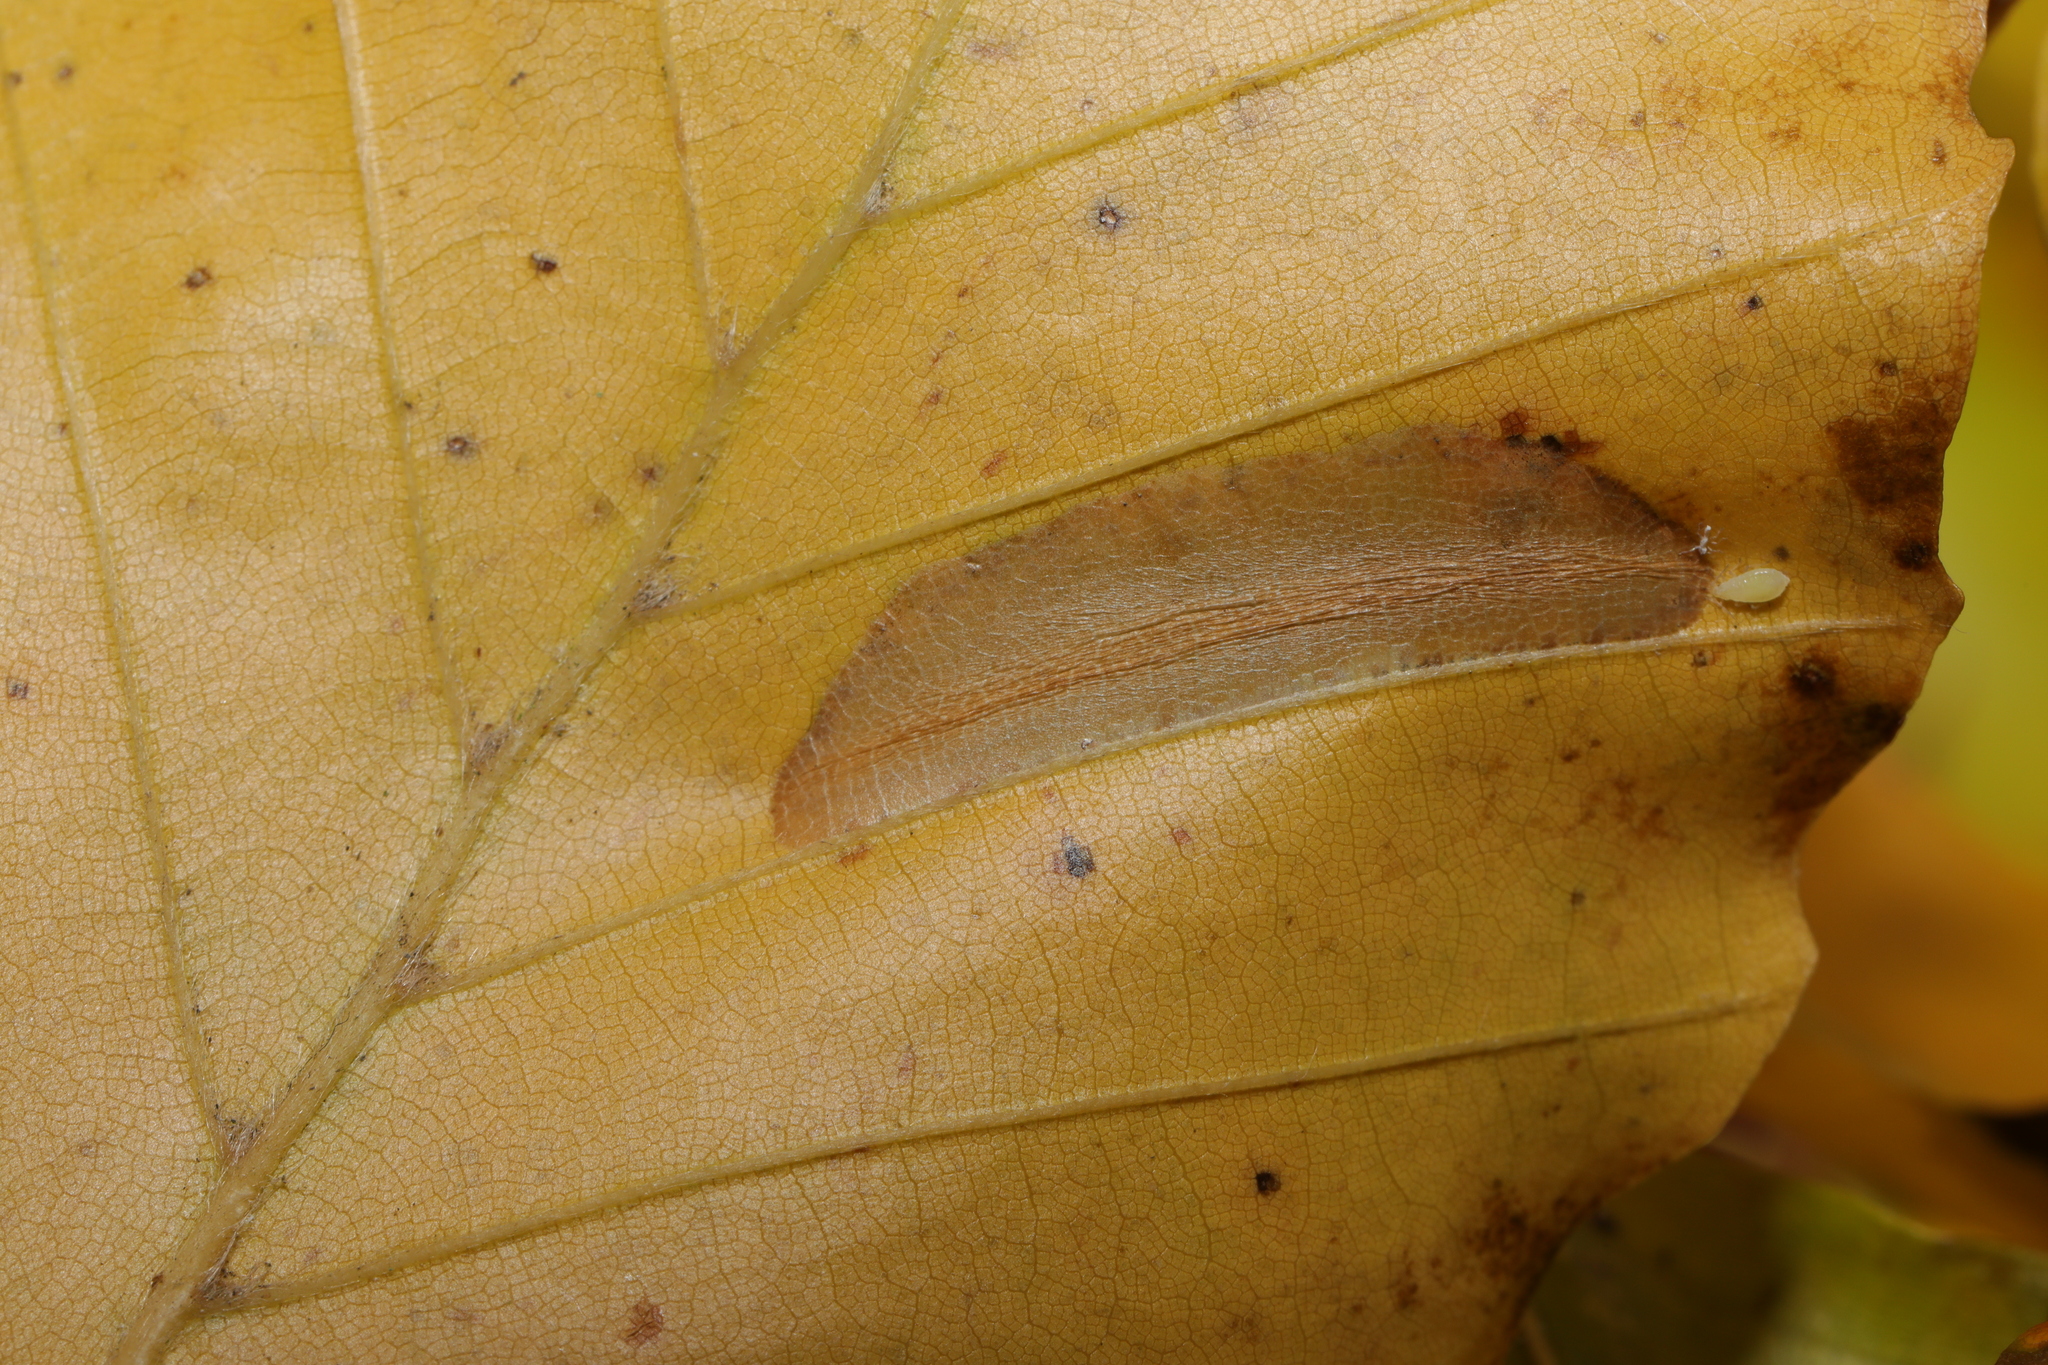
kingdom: Animalia
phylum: Arthropoda
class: Insecta
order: Lepidoptera
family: Gracillariidae
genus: Phyllonorycter
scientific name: Phyllonorycter maestingella
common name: Beech midget
